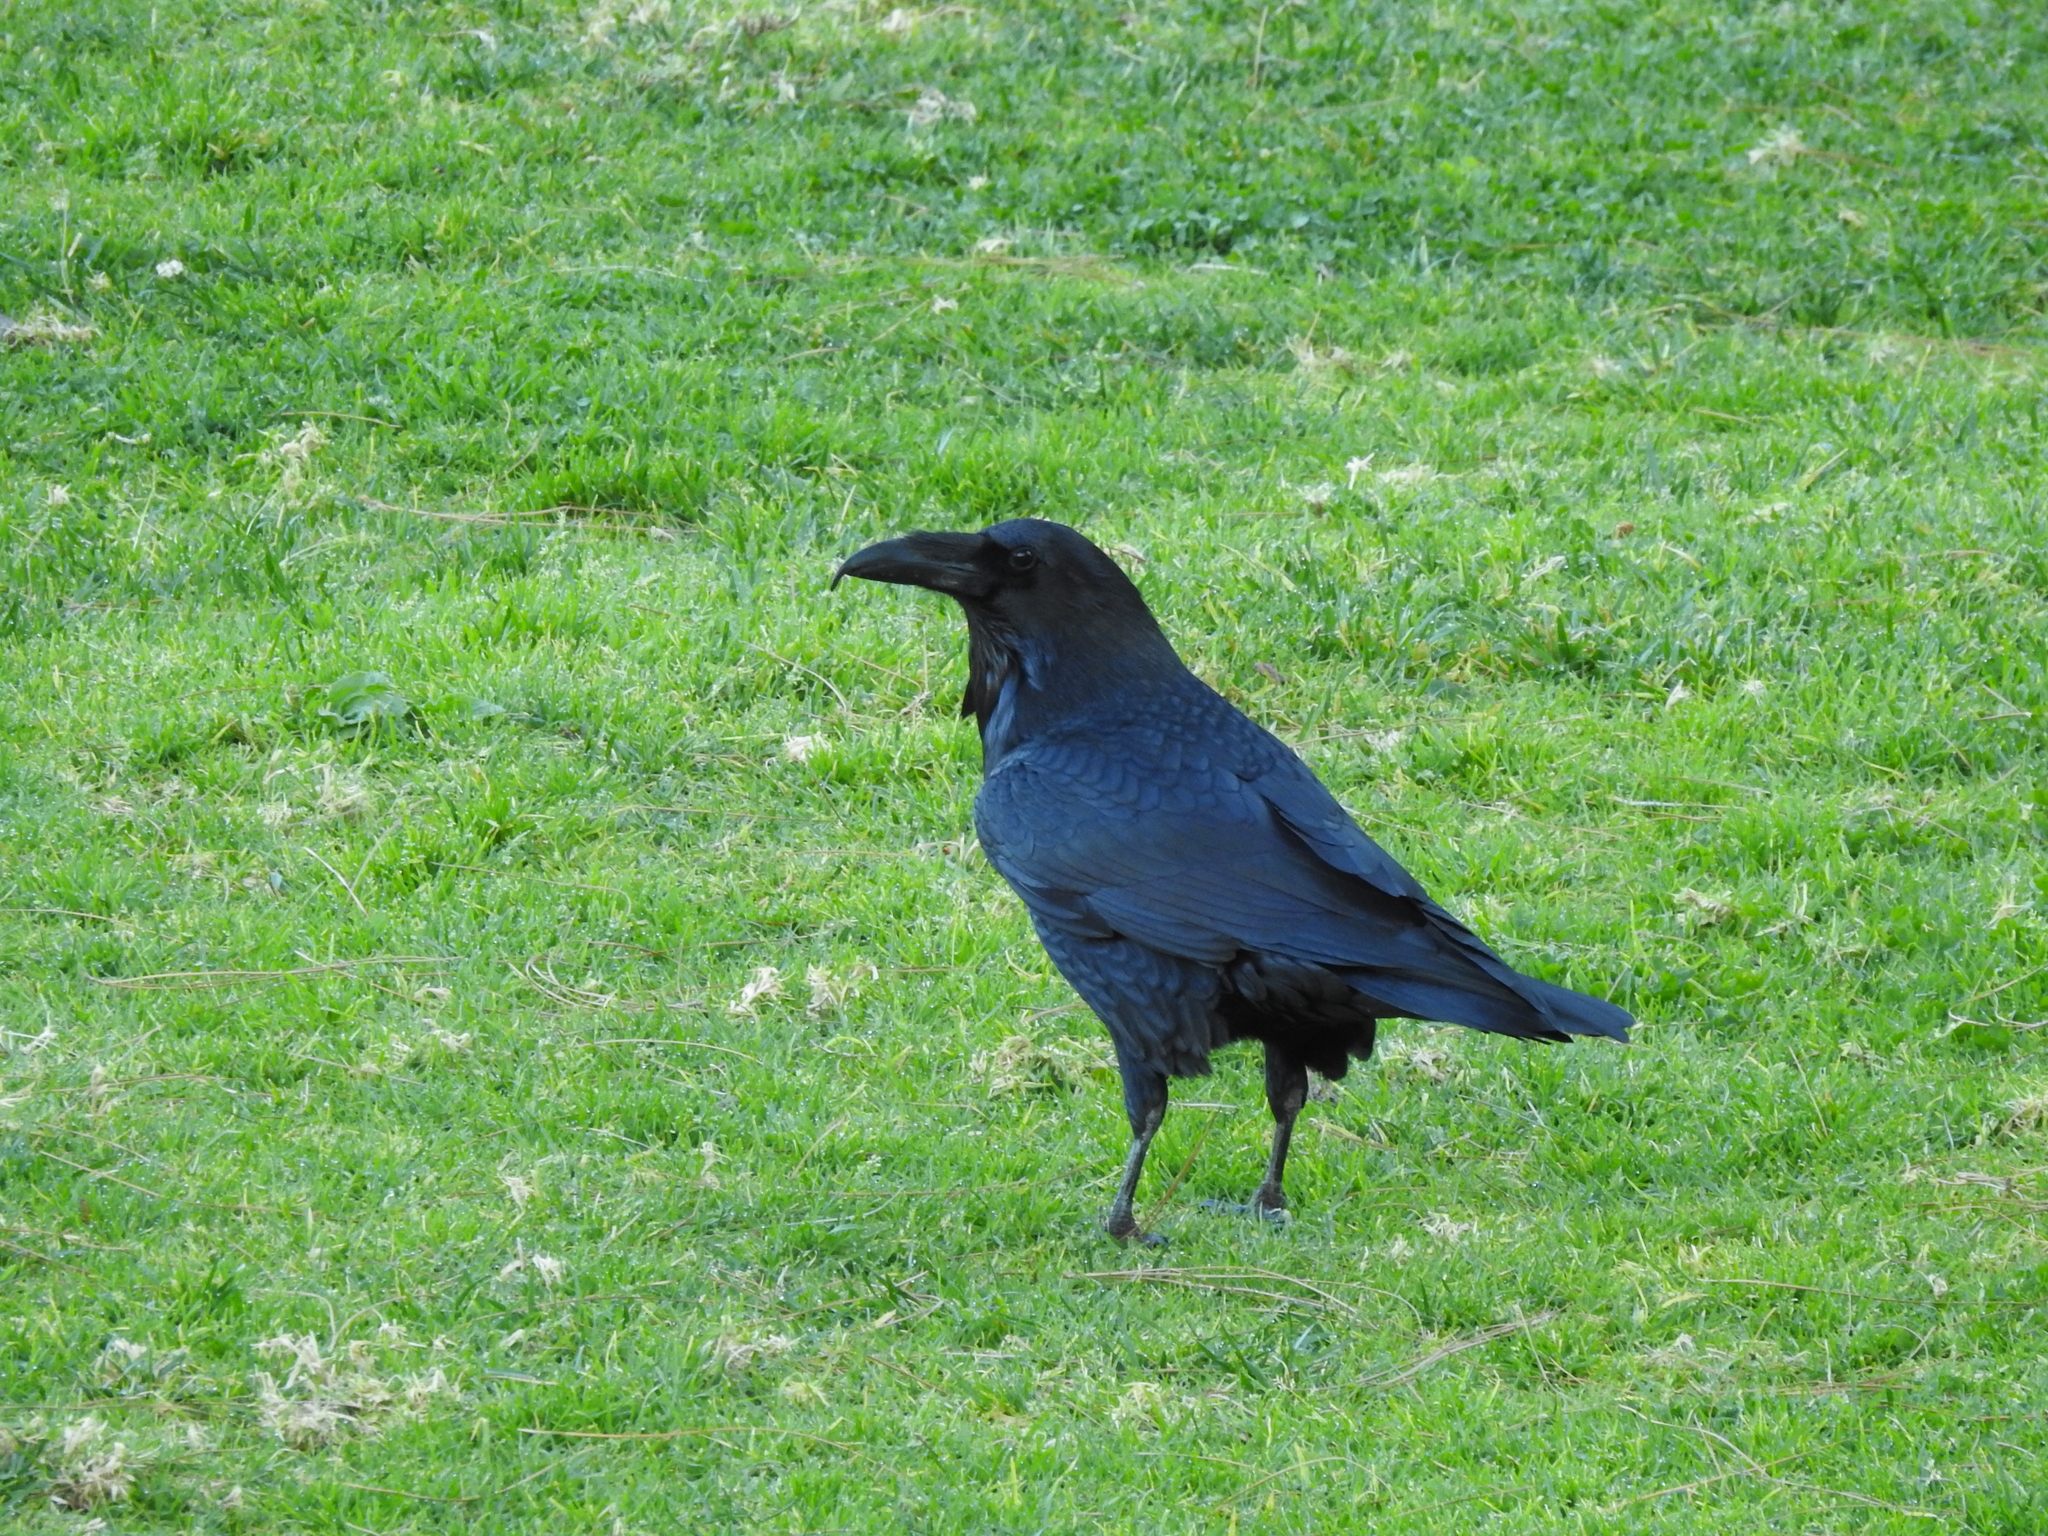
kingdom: Animalia
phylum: Chordata
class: Aves
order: Passeriformes
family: Corvidae
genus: Corvus
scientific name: Corvus corax
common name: Common raven
